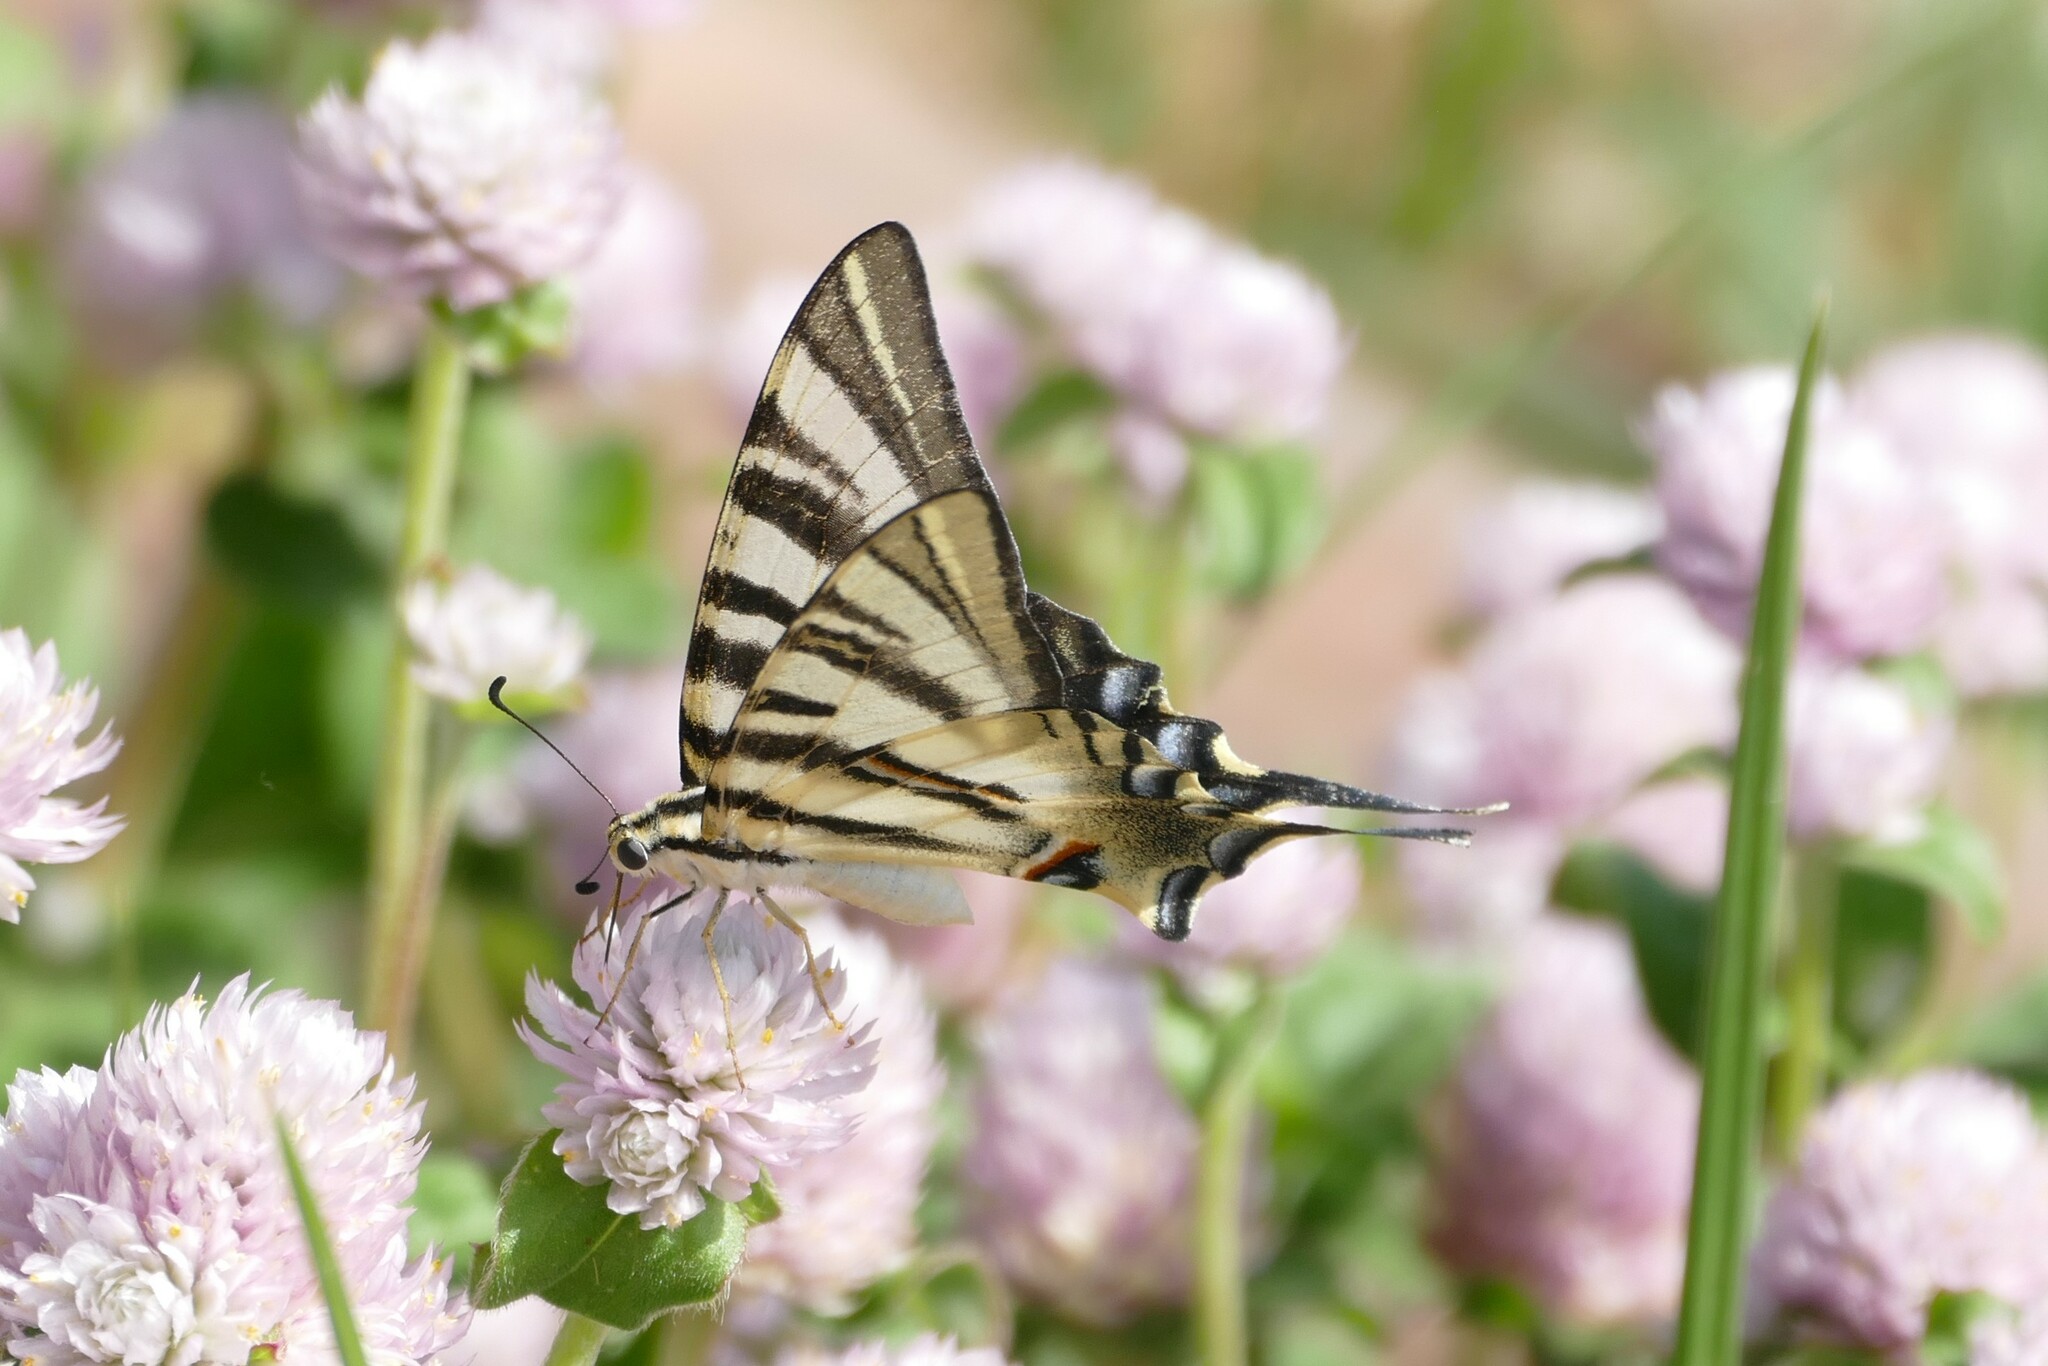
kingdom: Animalia
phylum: Arthropoda
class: Insecta
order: Lepidoptera
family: Papilionidae
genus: Iphiclides
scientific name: Iphiclides feisthamelii
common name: Iberian scarce swallowtail
